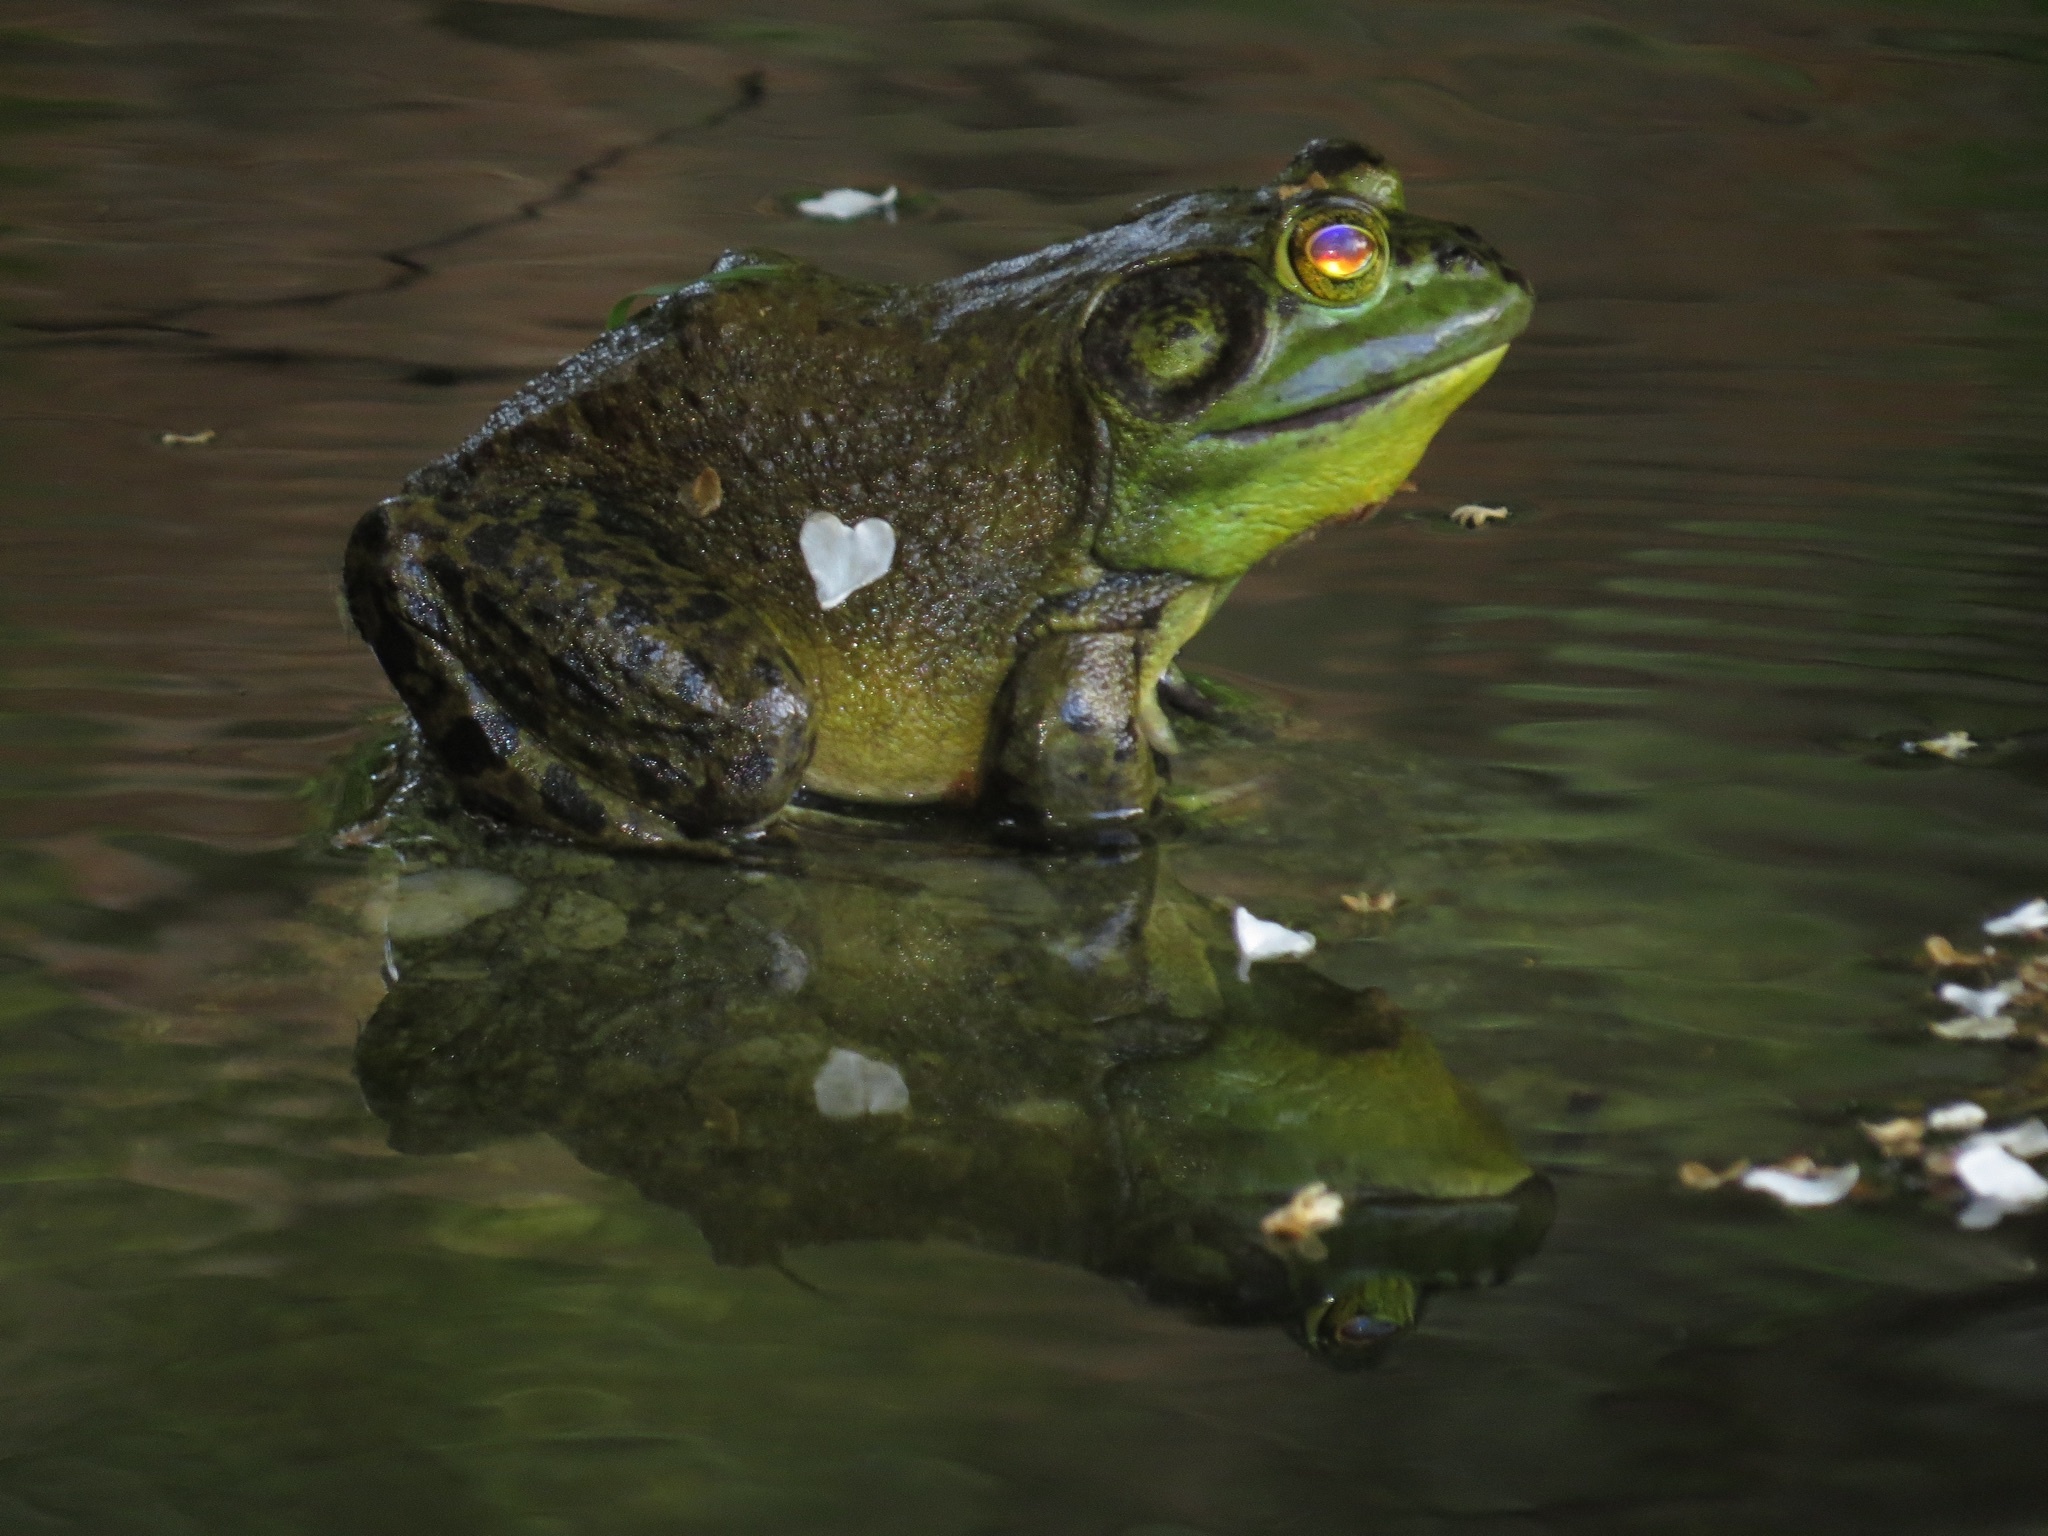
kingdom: Animalia
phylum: Chordata
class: Amphibia
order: Anura
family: Ranidae
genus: Lithobates
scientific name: Lithobates catesbeianus
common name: American bullfrog
